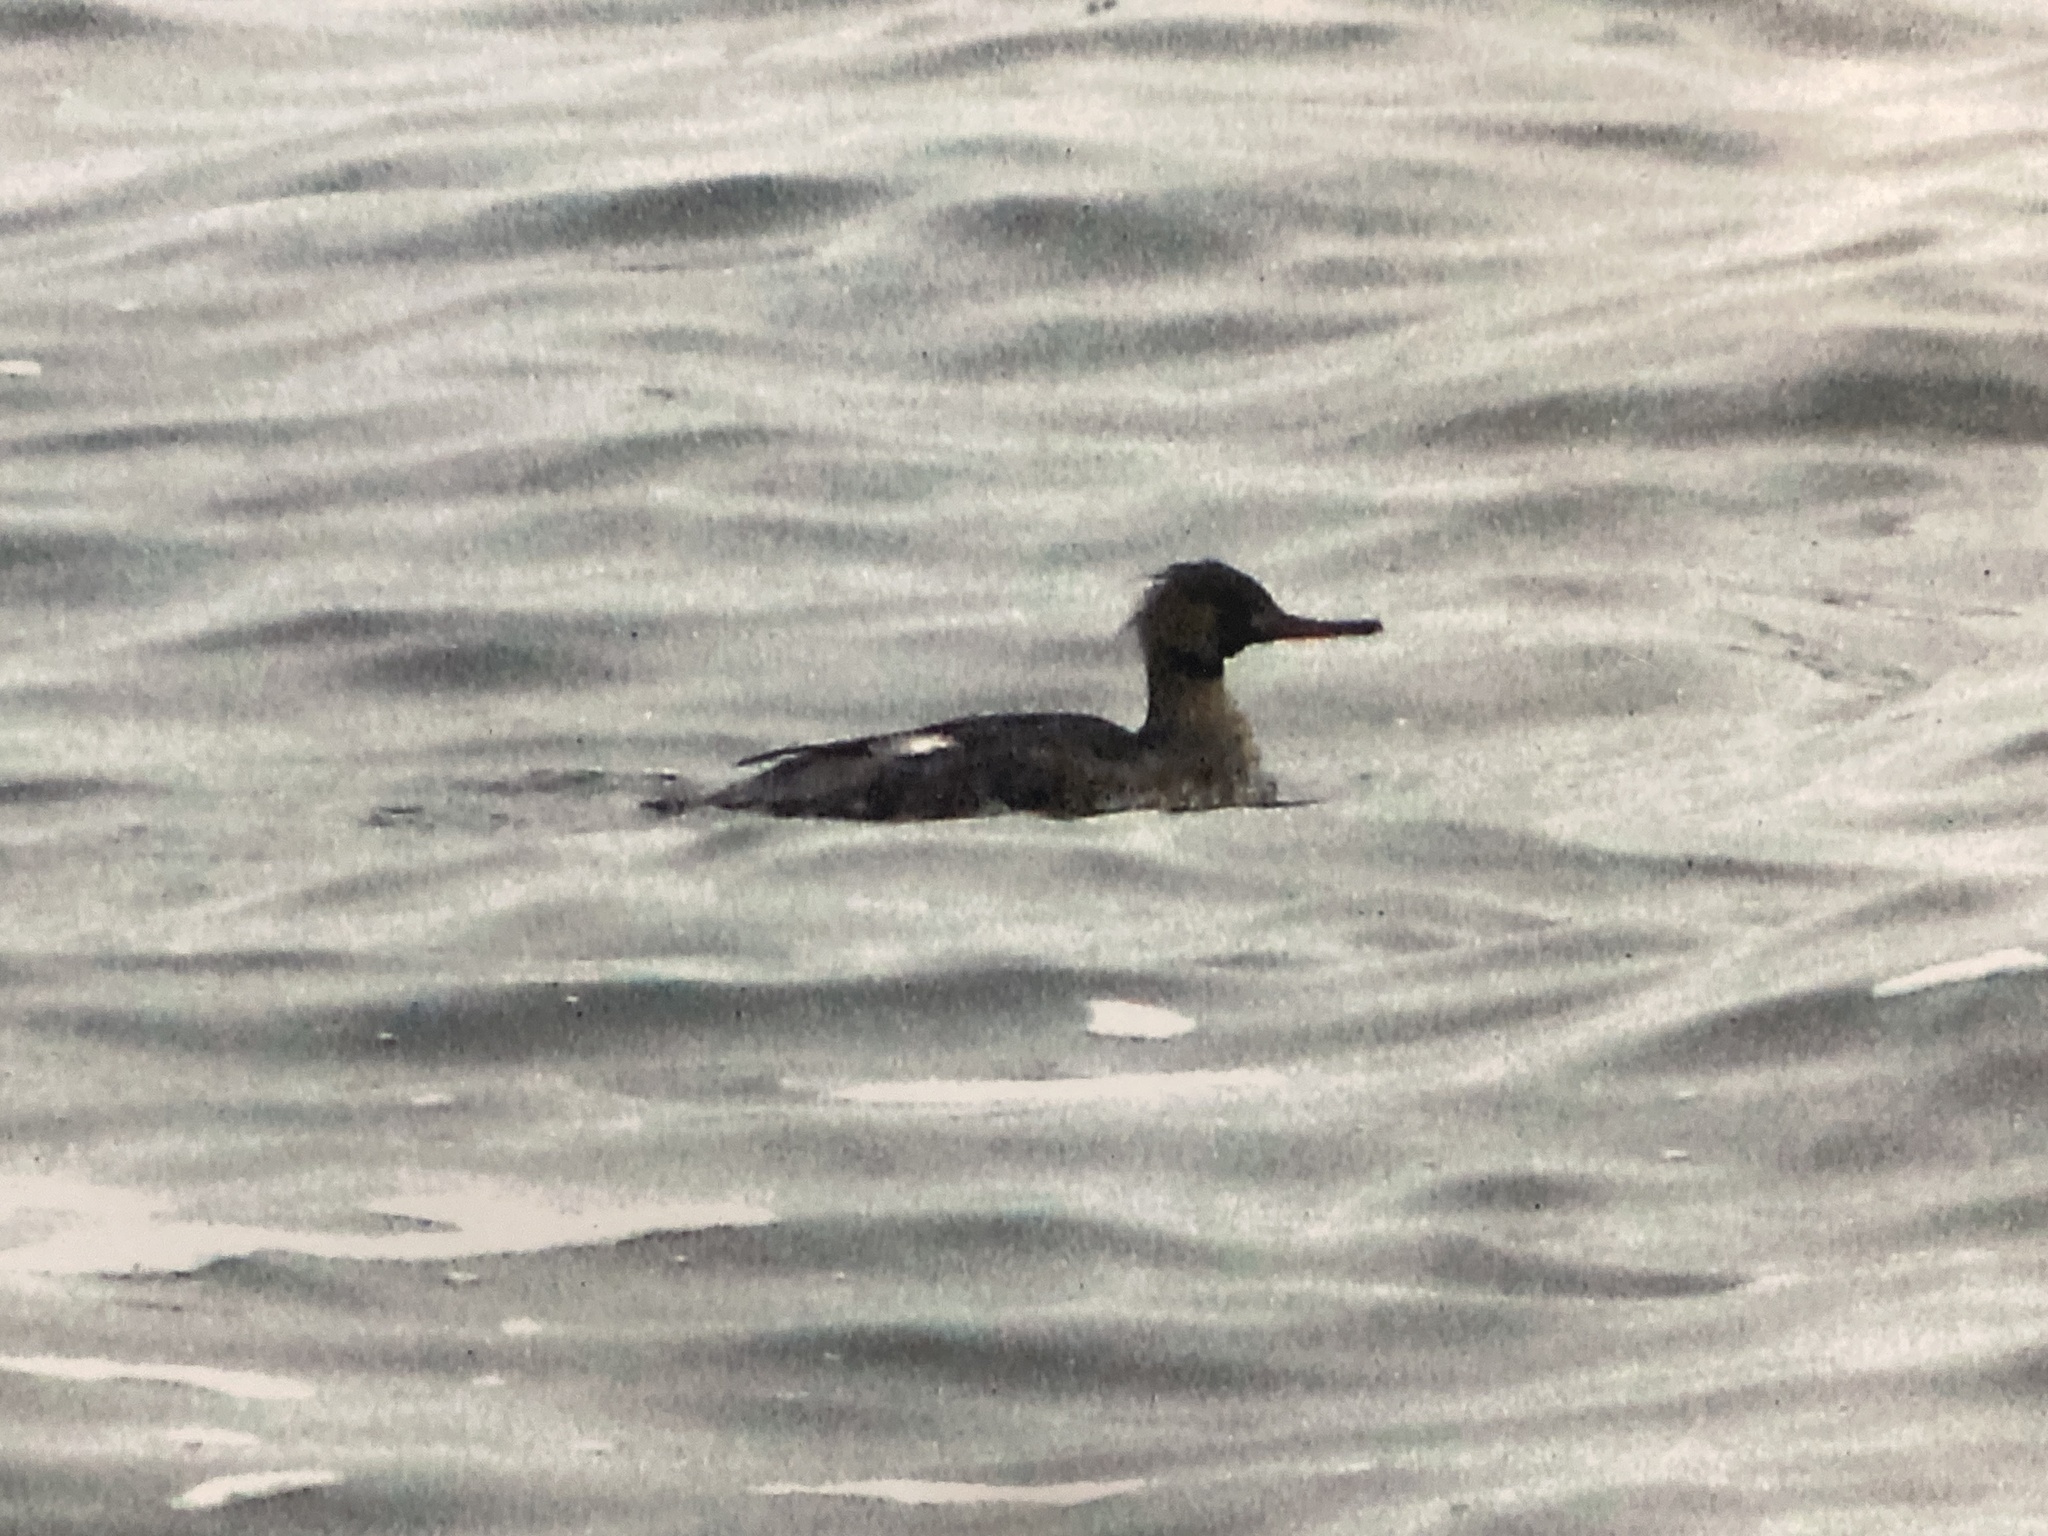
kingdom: Animalia
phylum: Chordata
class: Aves
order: Anseriformes
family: Anatidae
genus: Mergus
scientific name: Mergus serrator
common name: Red-breasted merganser
